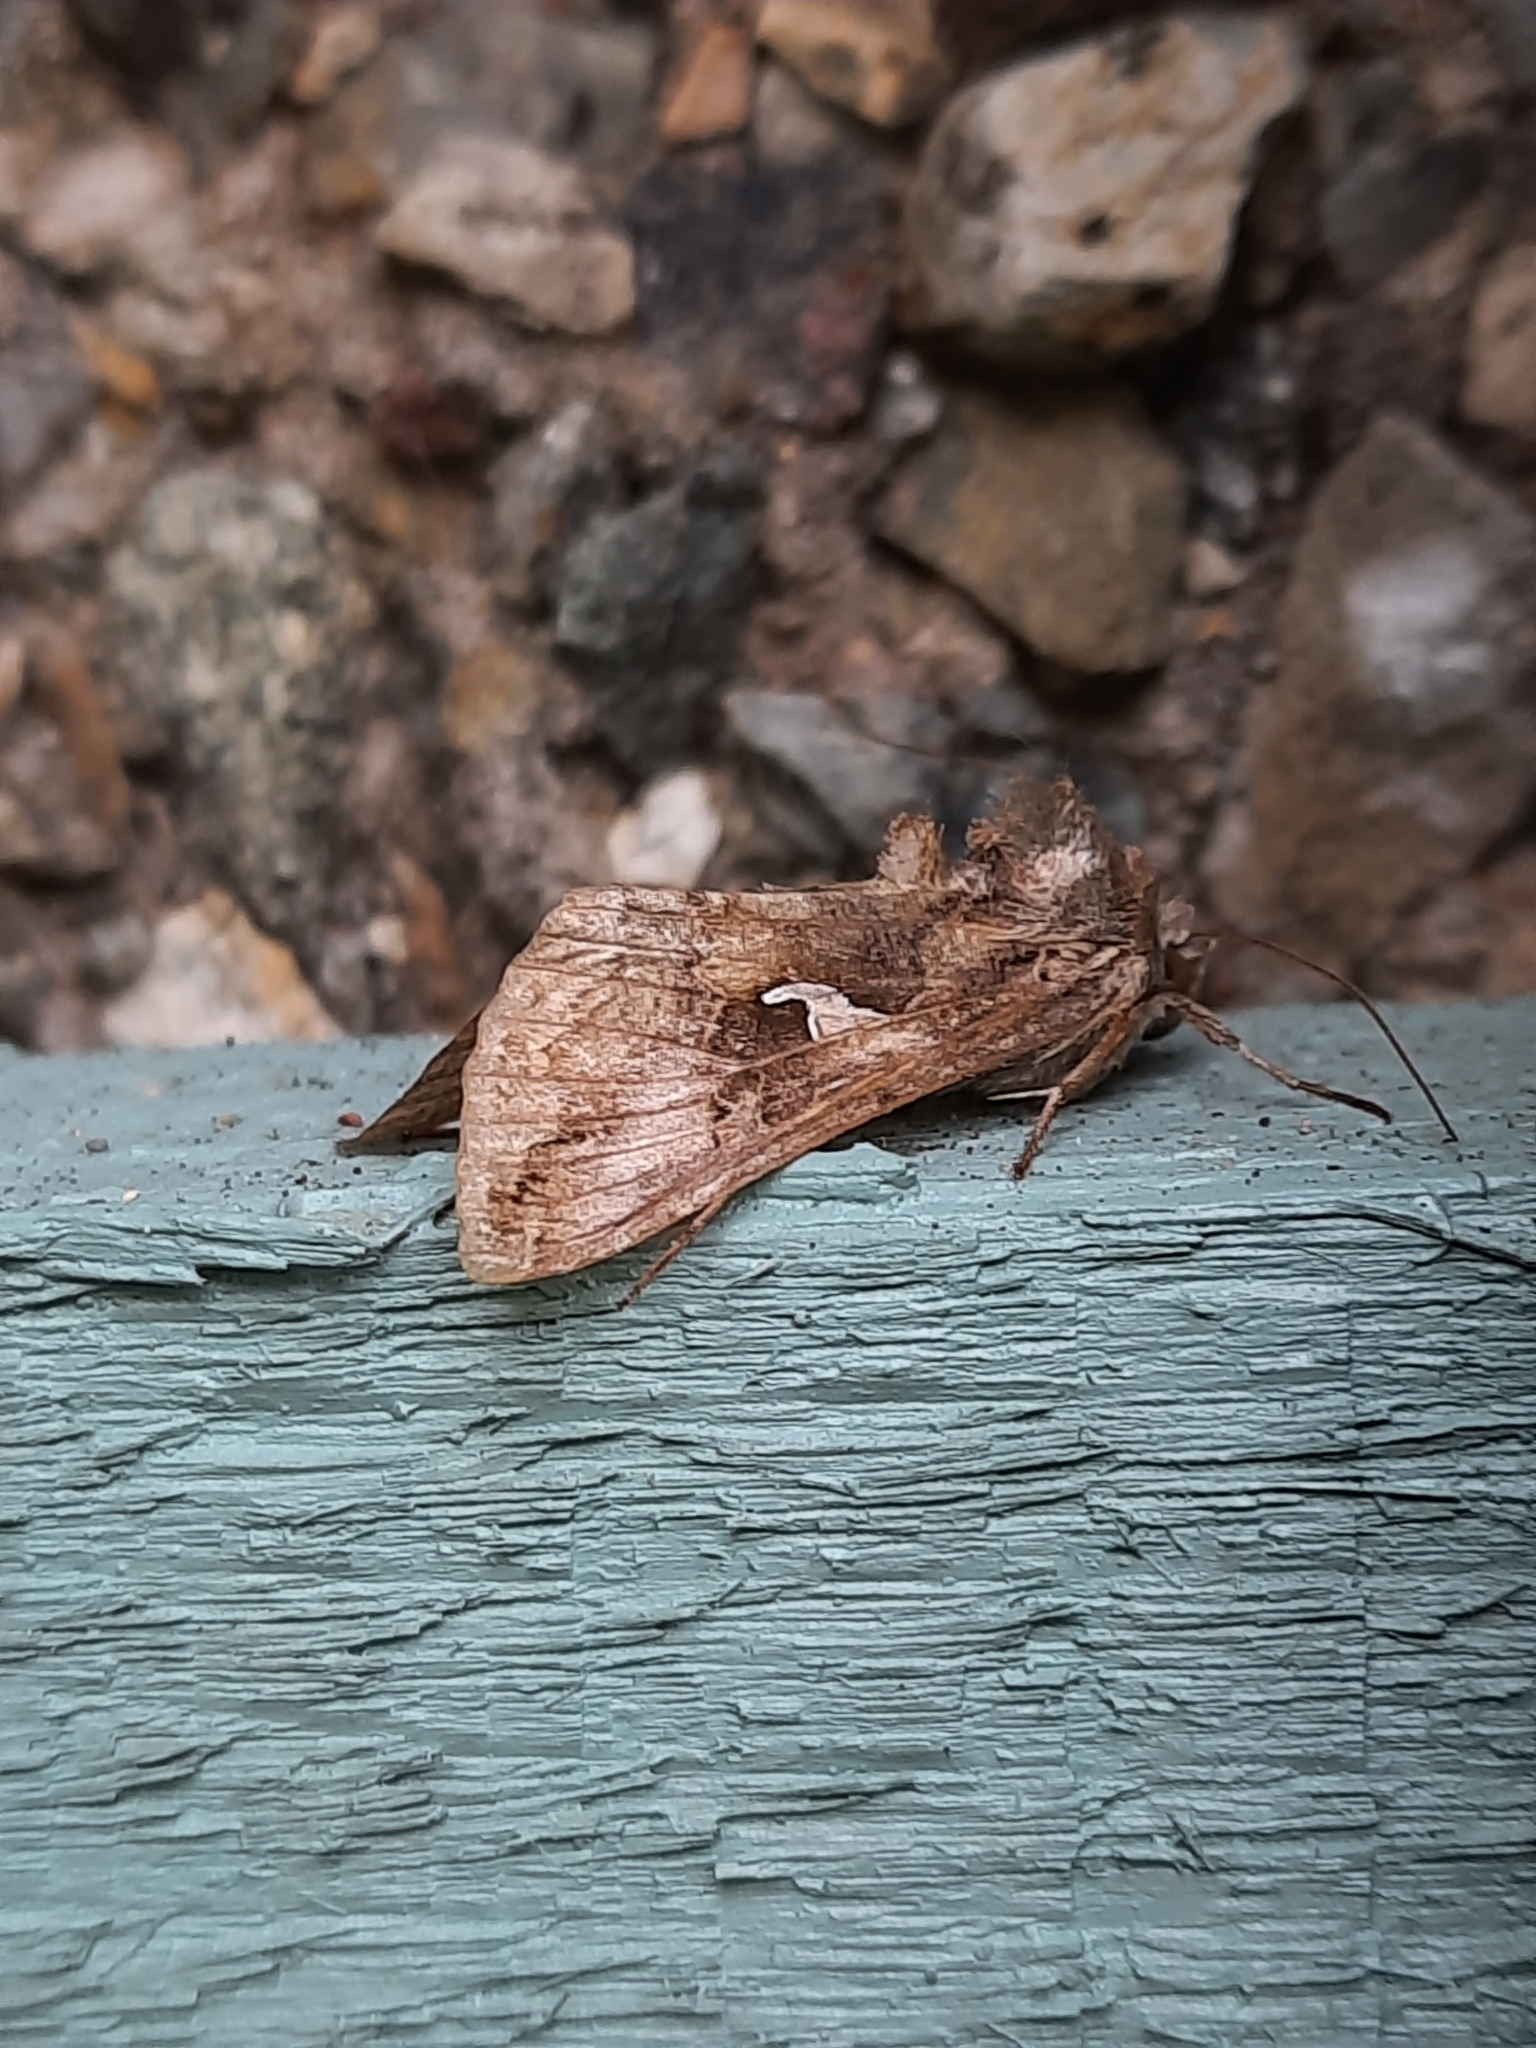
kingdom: Animalia
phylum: Arthropoda
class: Insecta
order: Lepidoptera
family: Noctuidae
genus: Autographa
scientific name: Autographa gamma
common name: Silver y
